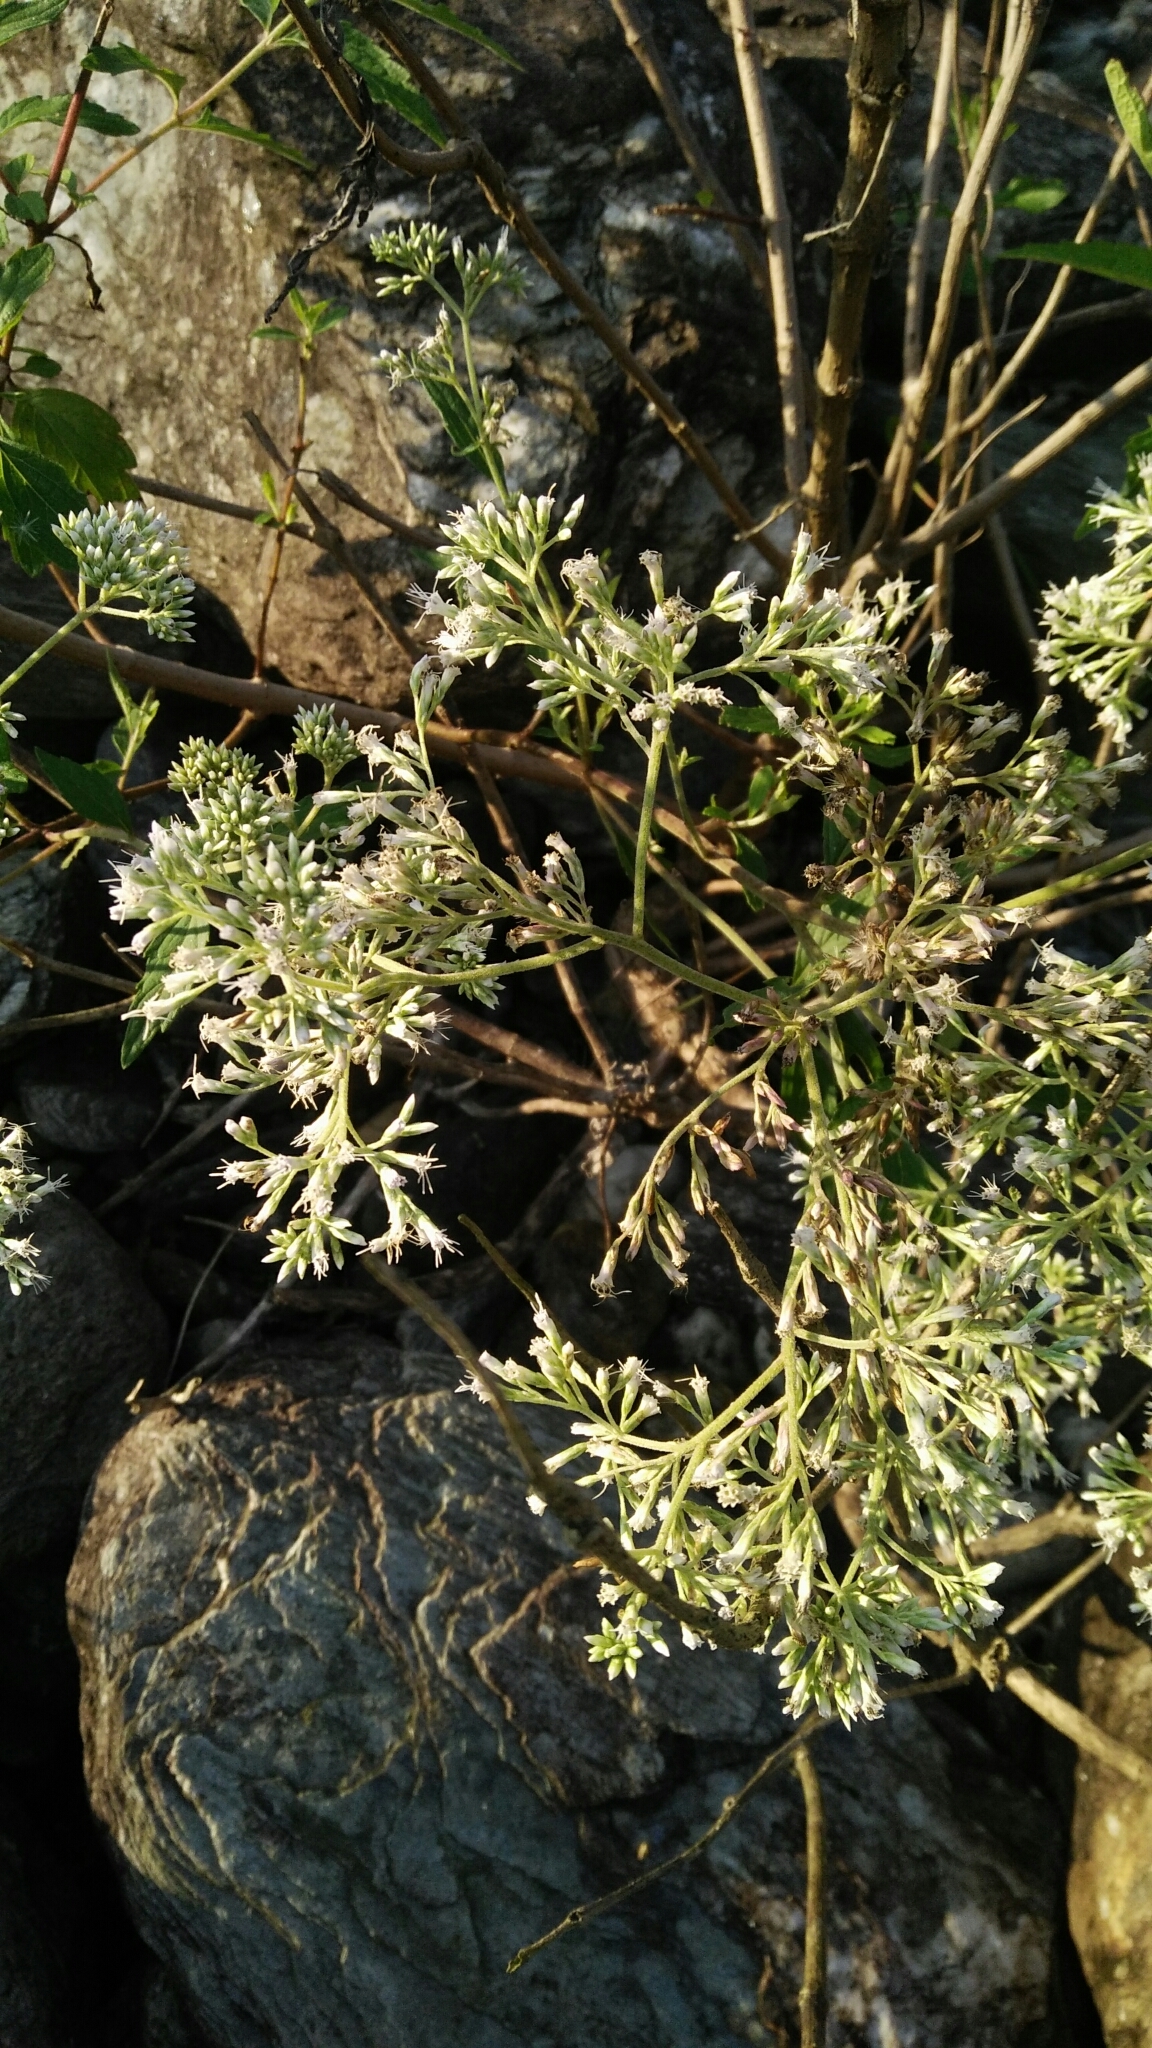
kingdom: Plantae
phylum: Tracheophyta
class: Magnoliopsida
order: Asterales
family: Asteraceae
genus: Eupatorium
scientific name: Eupatorium formosanum
